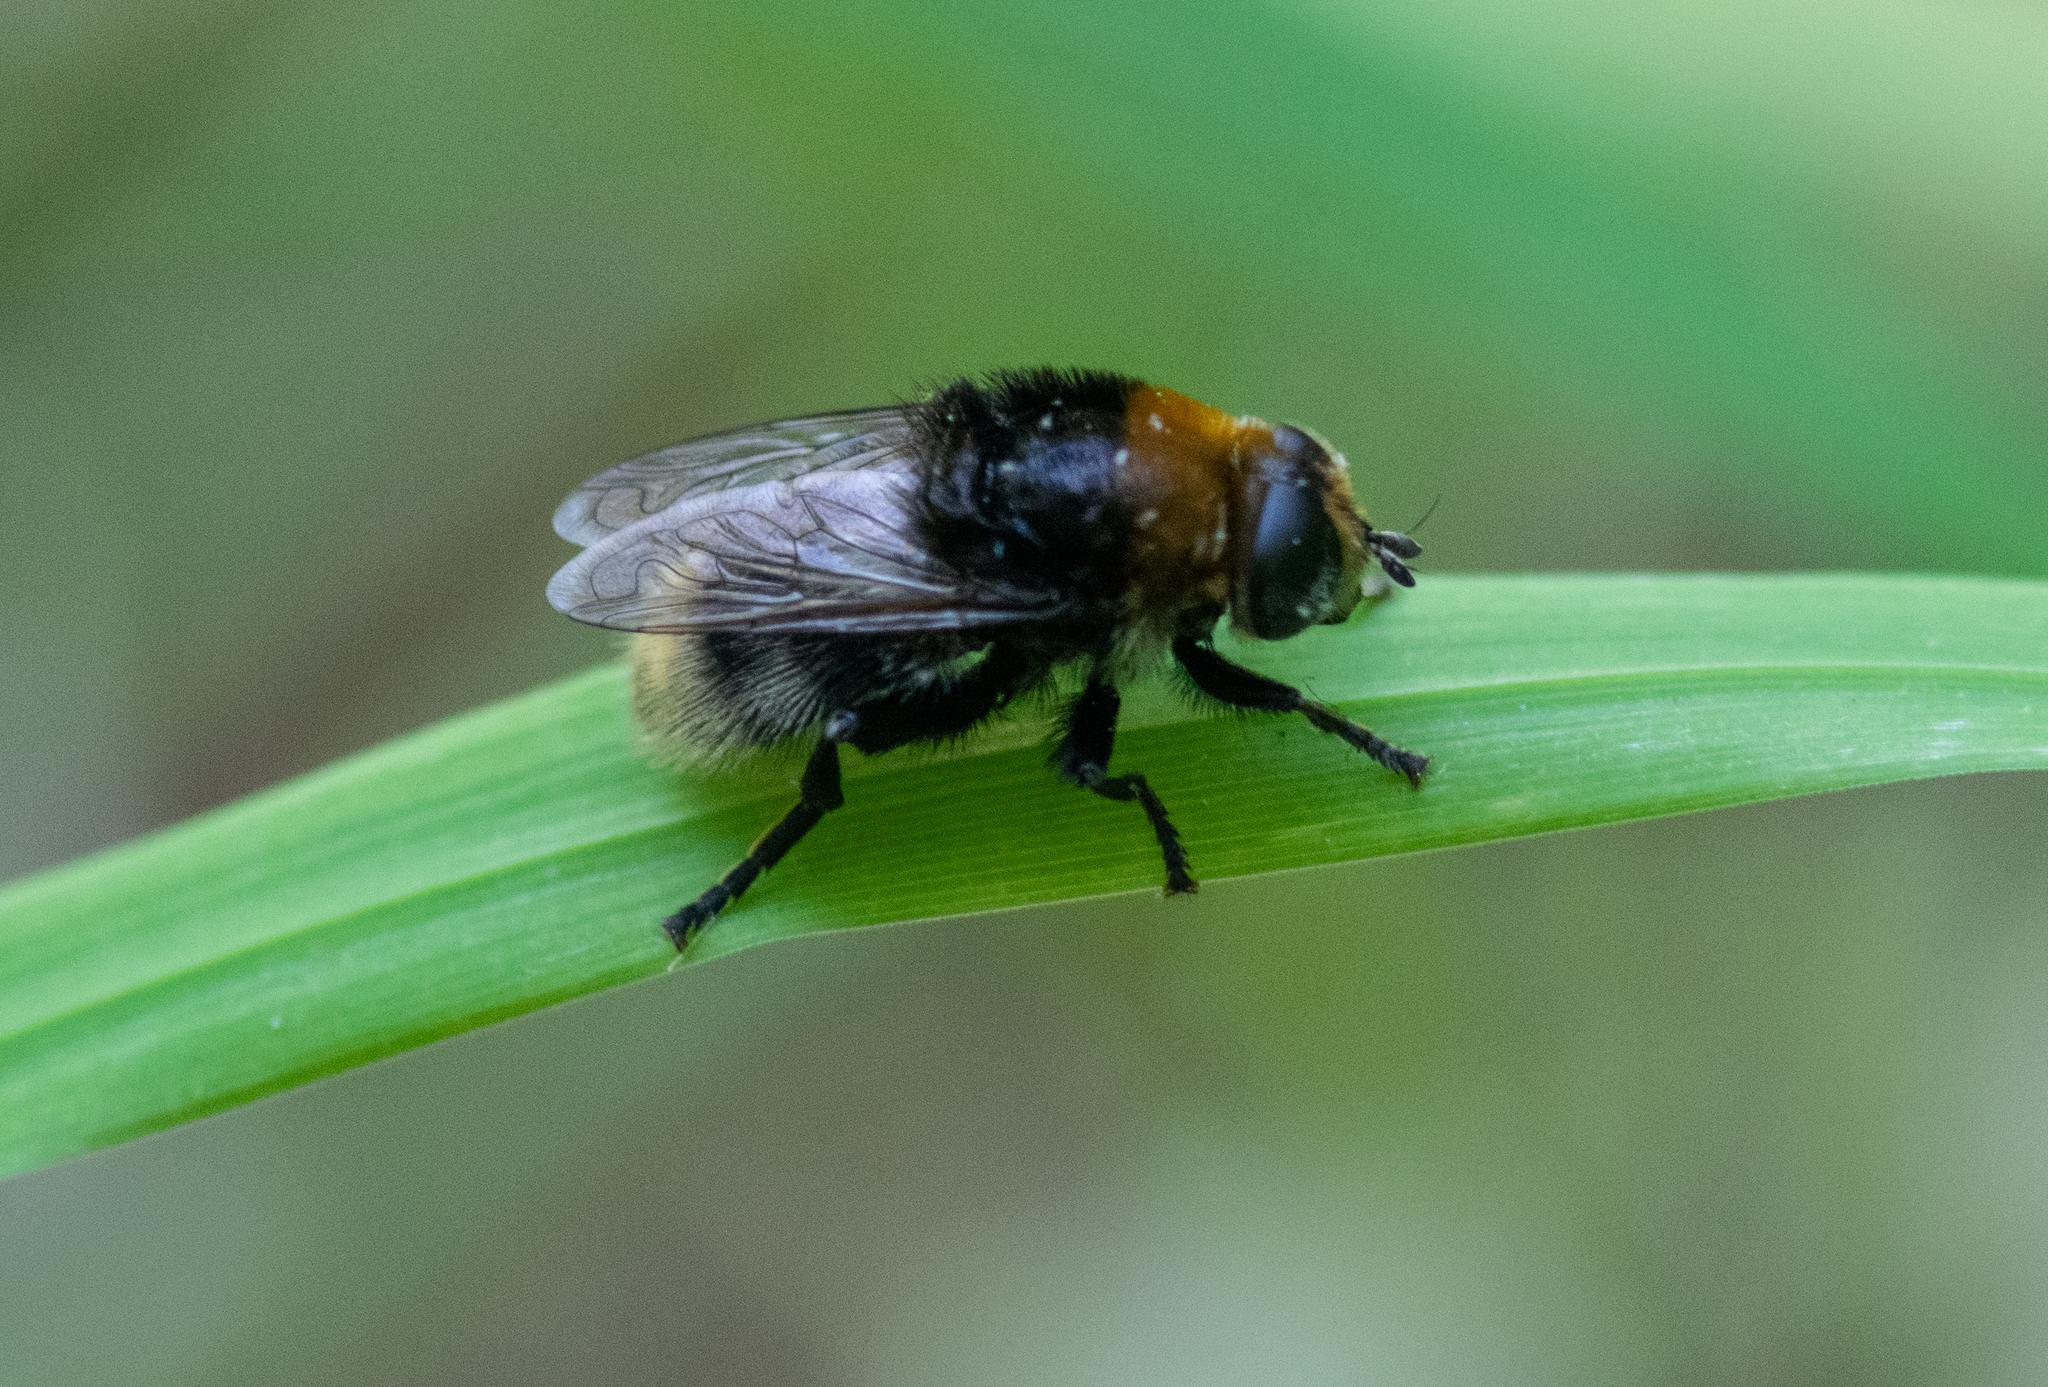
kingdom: Animalia
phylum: Arthropoda
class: Insecta
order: Diptera
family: Syrphidae
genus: Merodon
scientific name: Merodon equestris
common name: Greater bulb-fly
